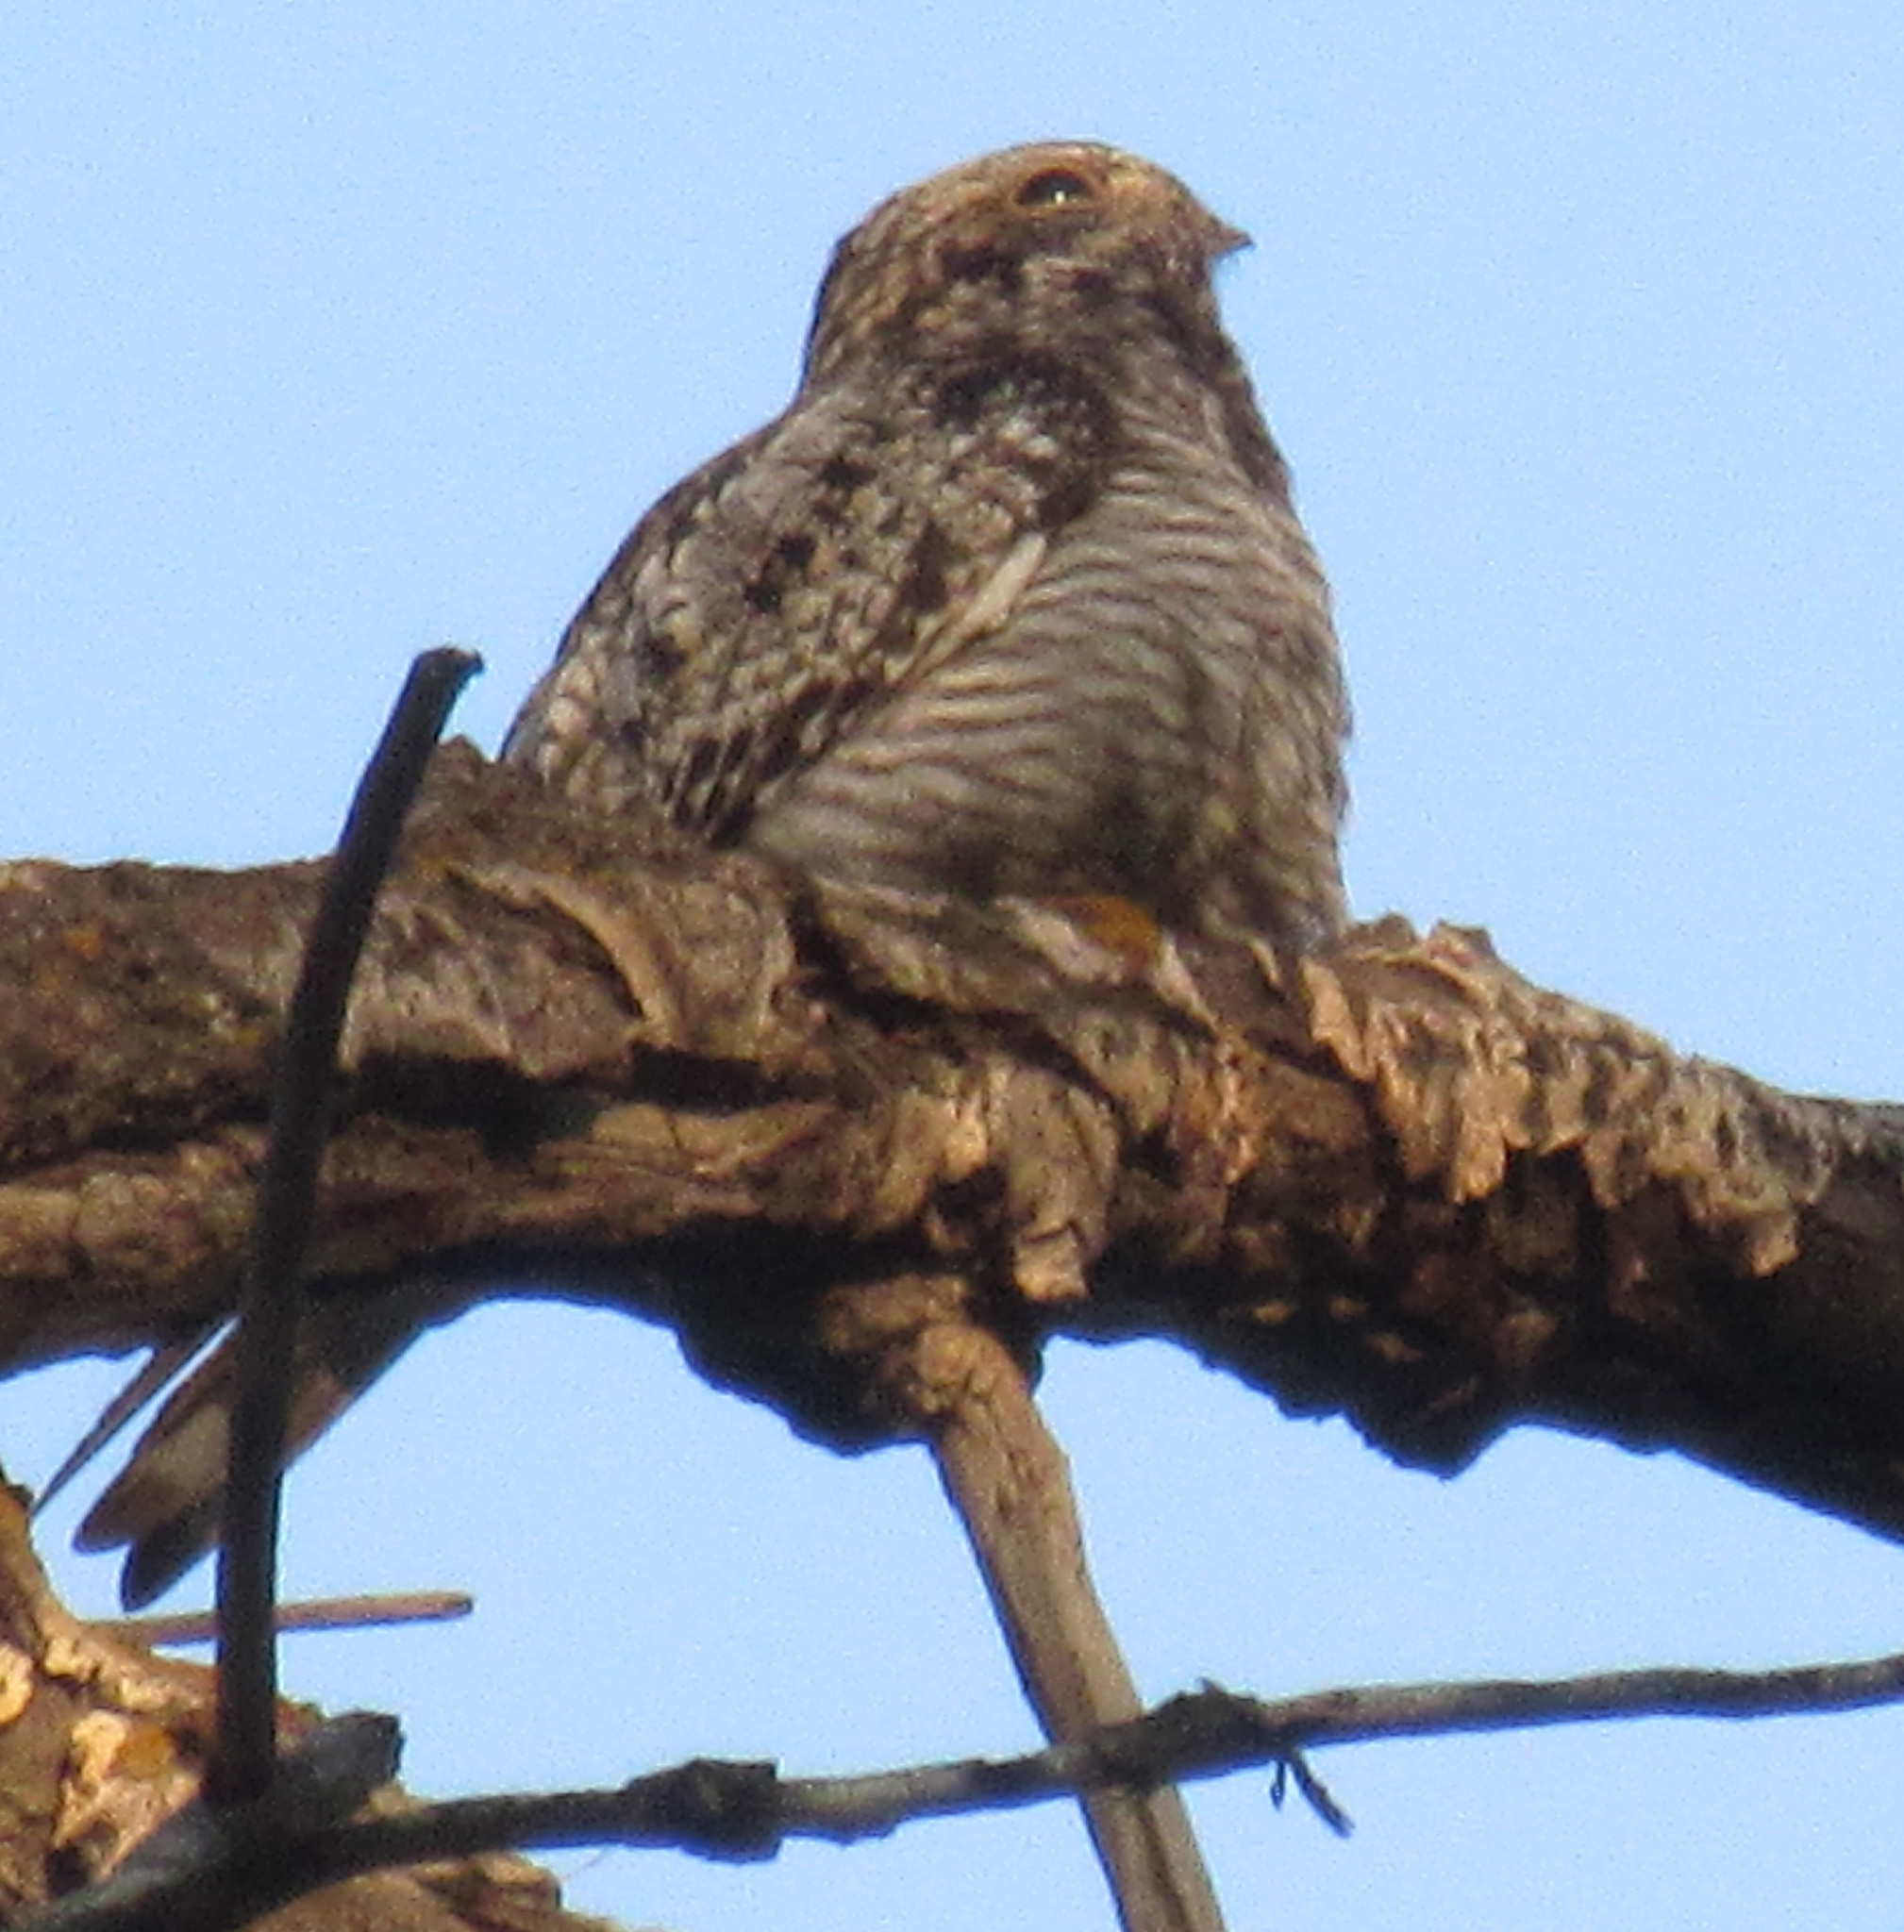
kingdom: Animalia
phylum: Chordata
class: Aves
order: Caprimulgiformes
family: Caprimulgidae
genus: Chordeiles
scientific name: Chordeiles minor
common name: Common nighthawk
